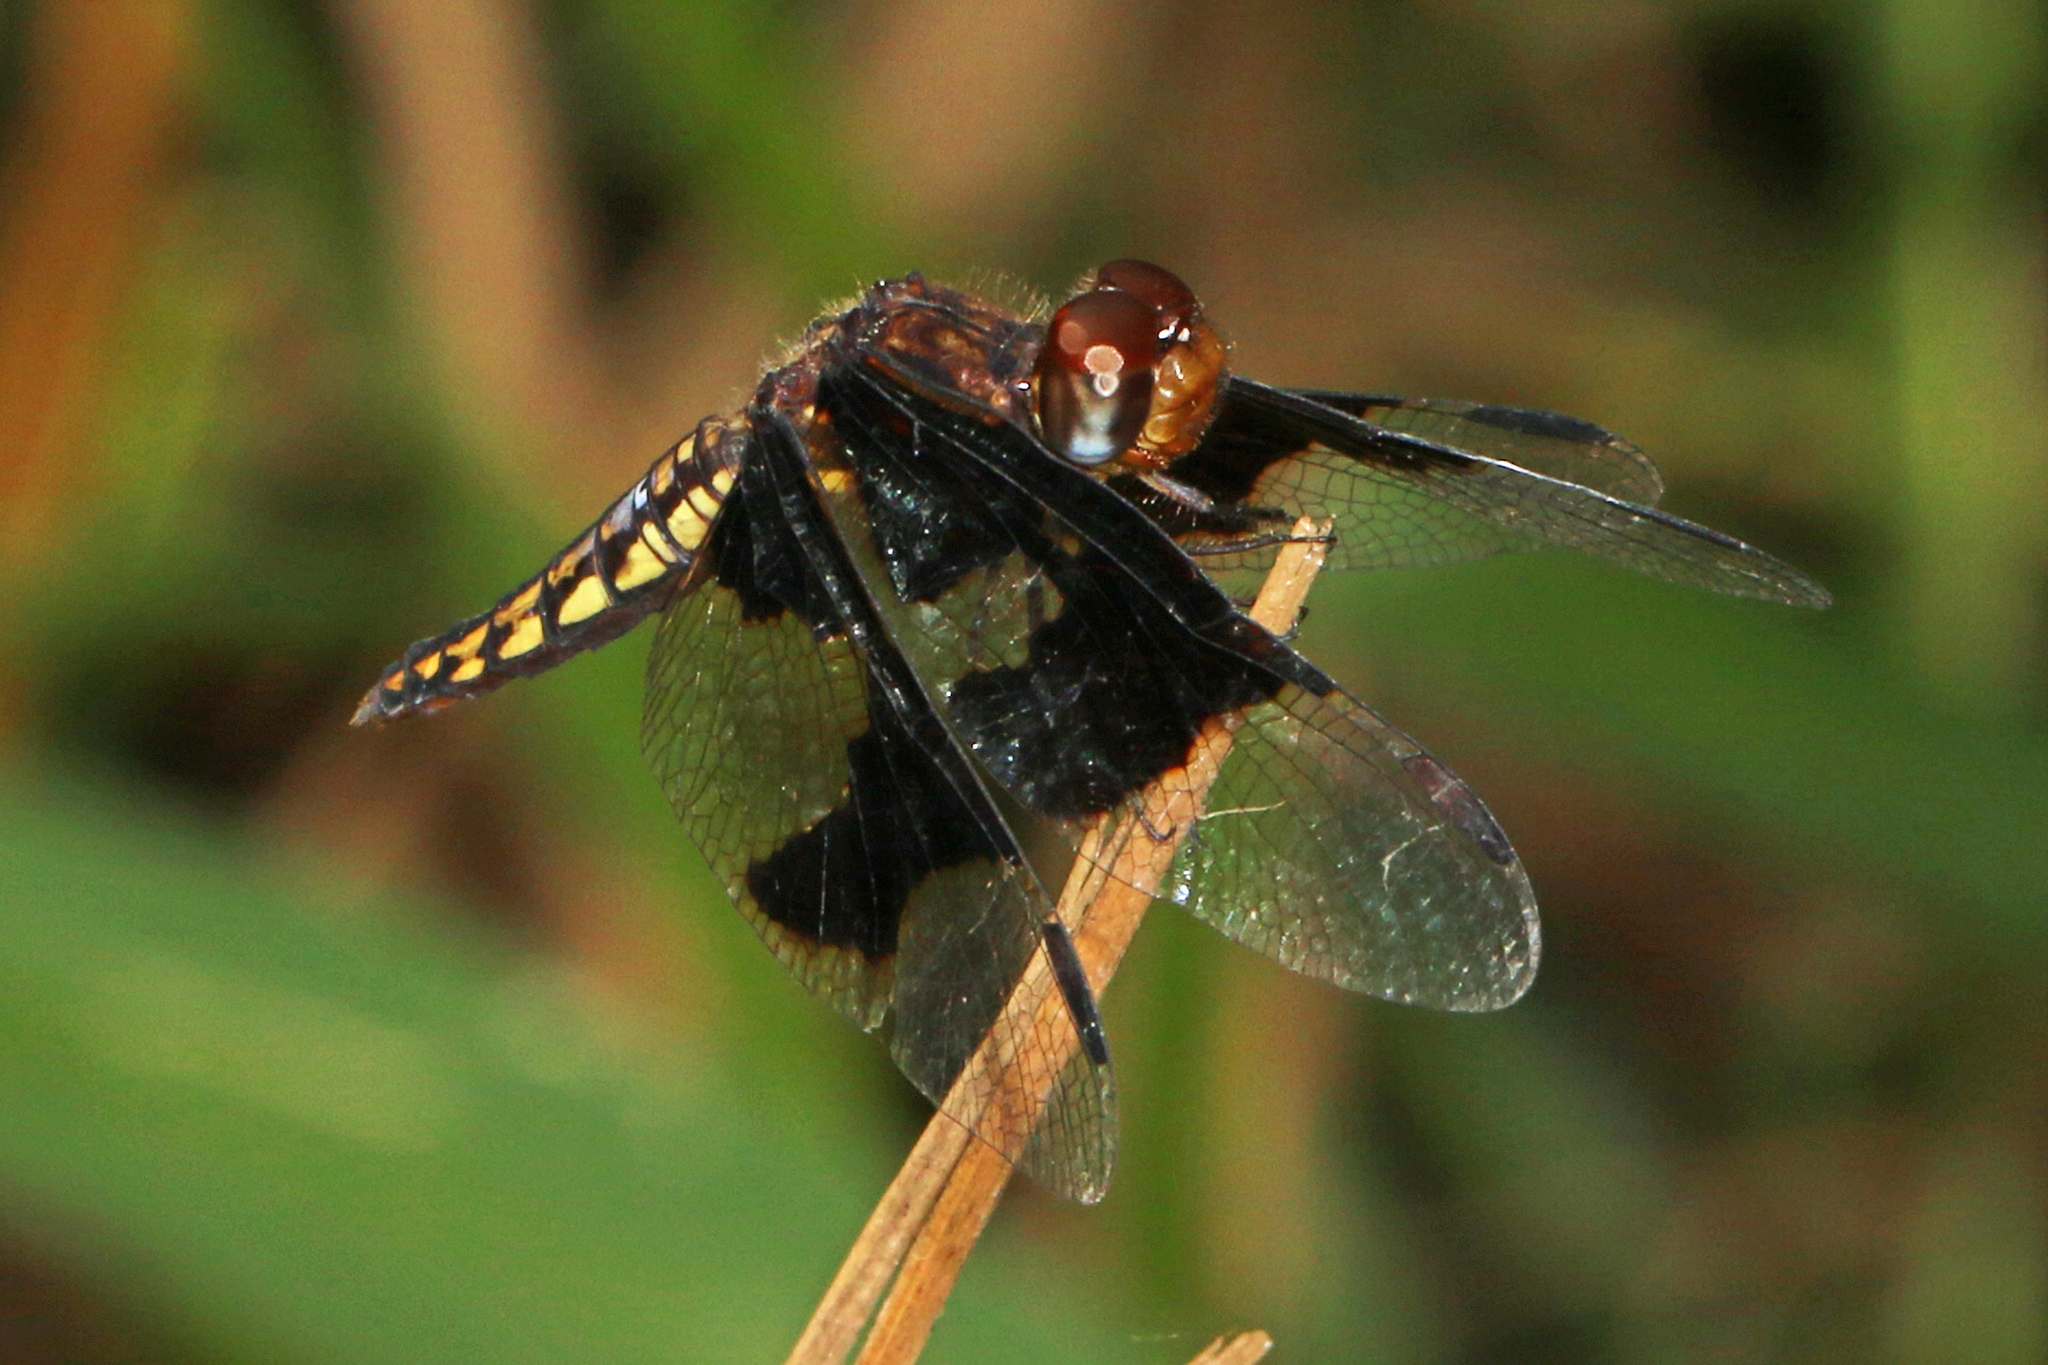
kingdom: Animalia
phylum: Arthropoda
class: Insecta
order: Odonata
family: Libellulidae
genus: Palpopleura
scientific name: Palpopleura lucia
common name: Lucia widow
